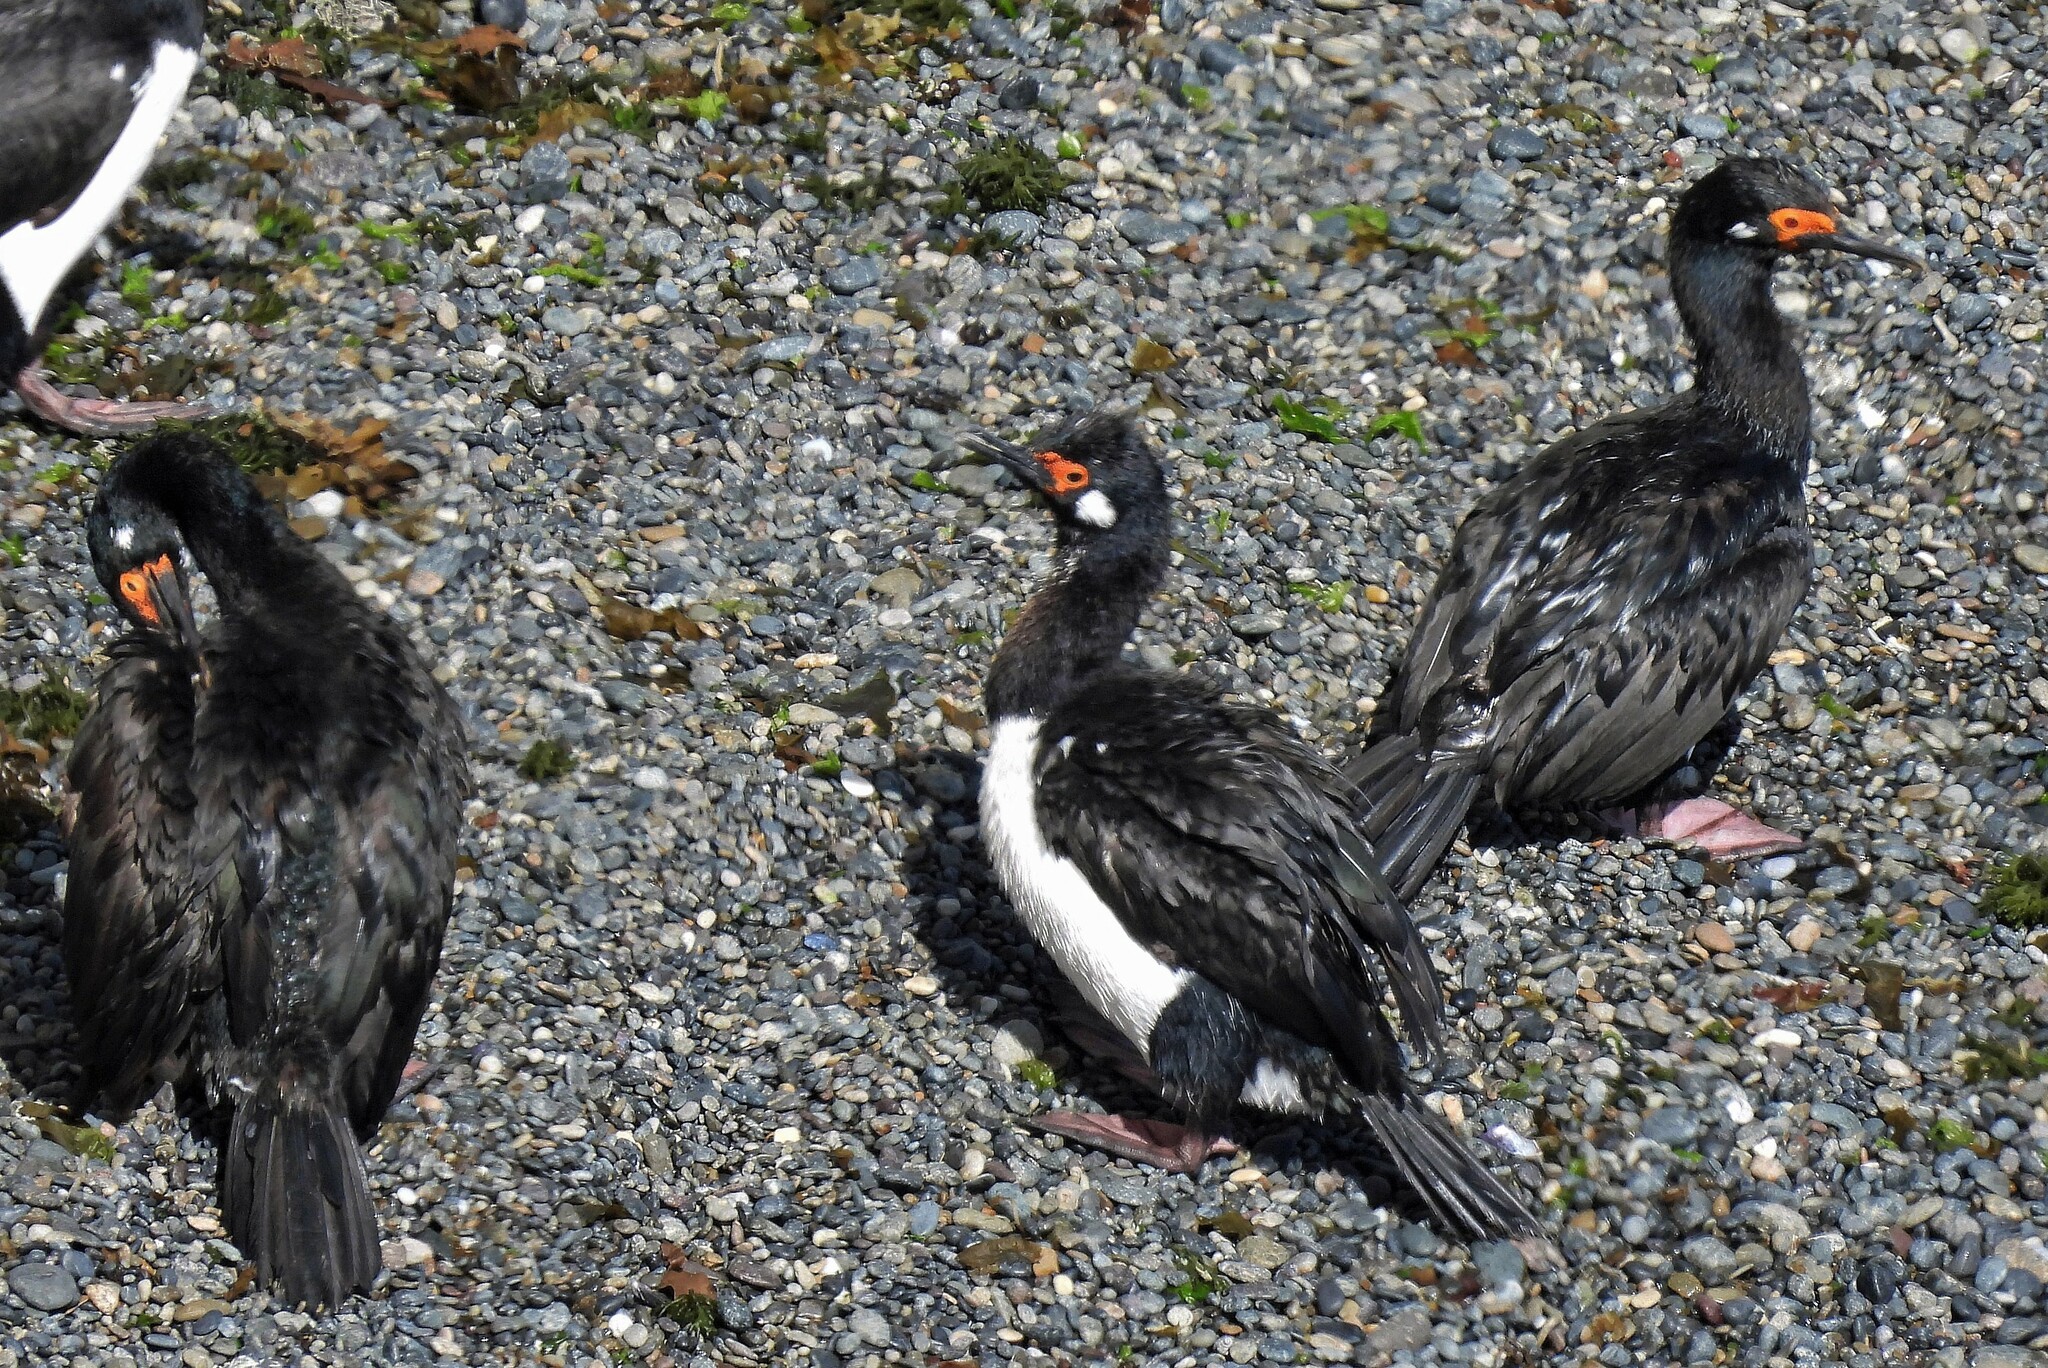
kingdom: Animalia
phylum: Chordata
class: Aves
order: Suliformes
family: Phalacrocoracidae
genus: Phalacrocorax
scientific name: Phalacrocorax magellanicus
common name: Rock shag
